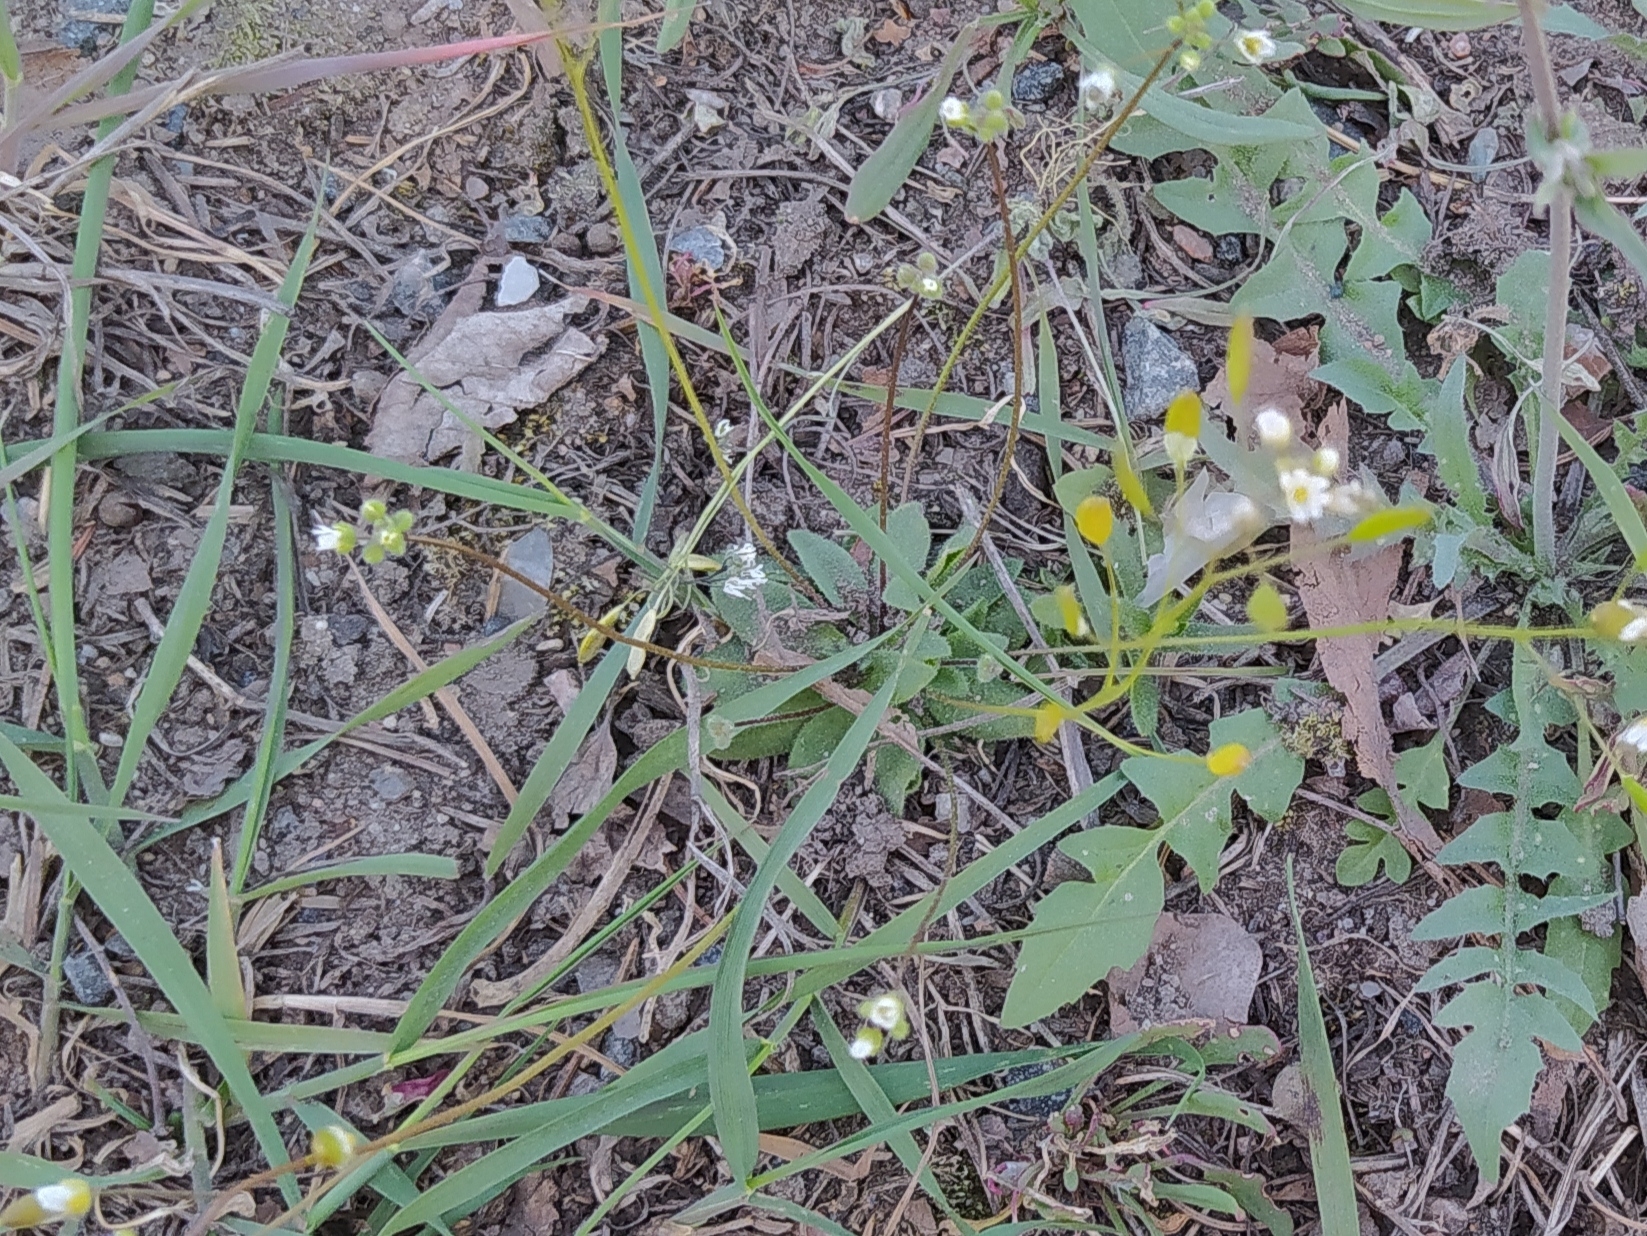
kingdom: Plantae
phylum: Tracheophyta
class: Magnoliopsida
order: Brassicales
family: Brassicaceae
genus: Draba
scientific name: Draba verna
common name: Spring draba
